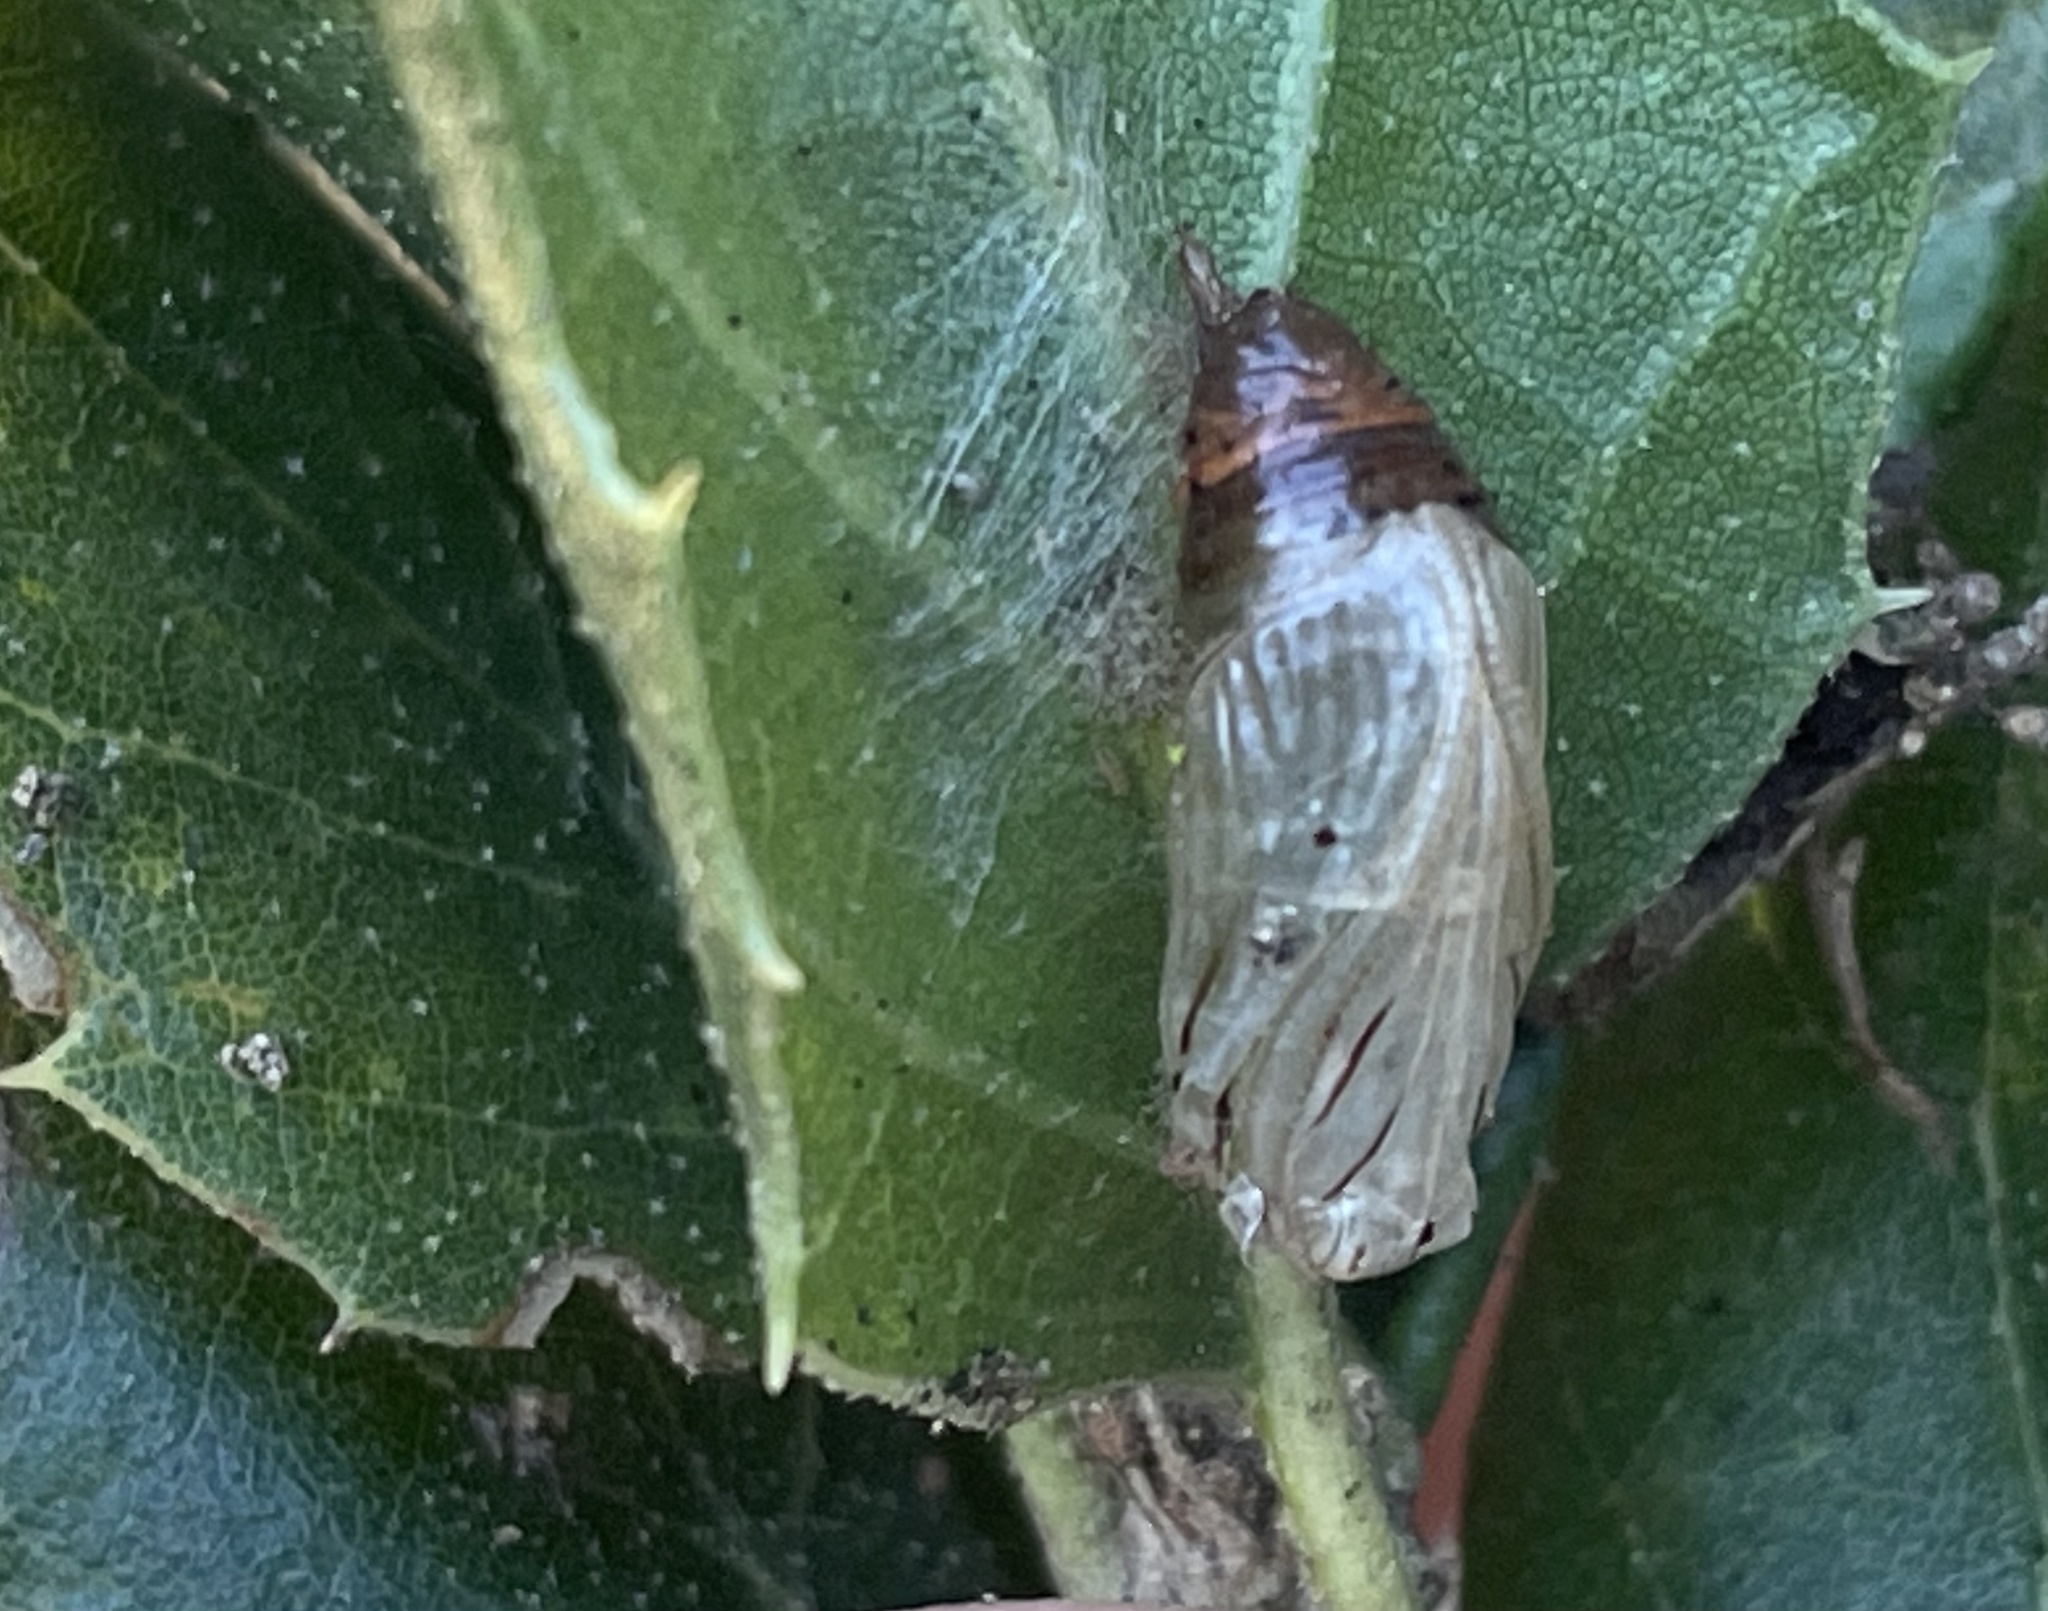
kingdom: Animalia
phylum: Arthropoda
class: Insecta
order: Lepidoptera
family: Notodontidae
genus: Phryganidia
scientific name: Phryganidia californica
